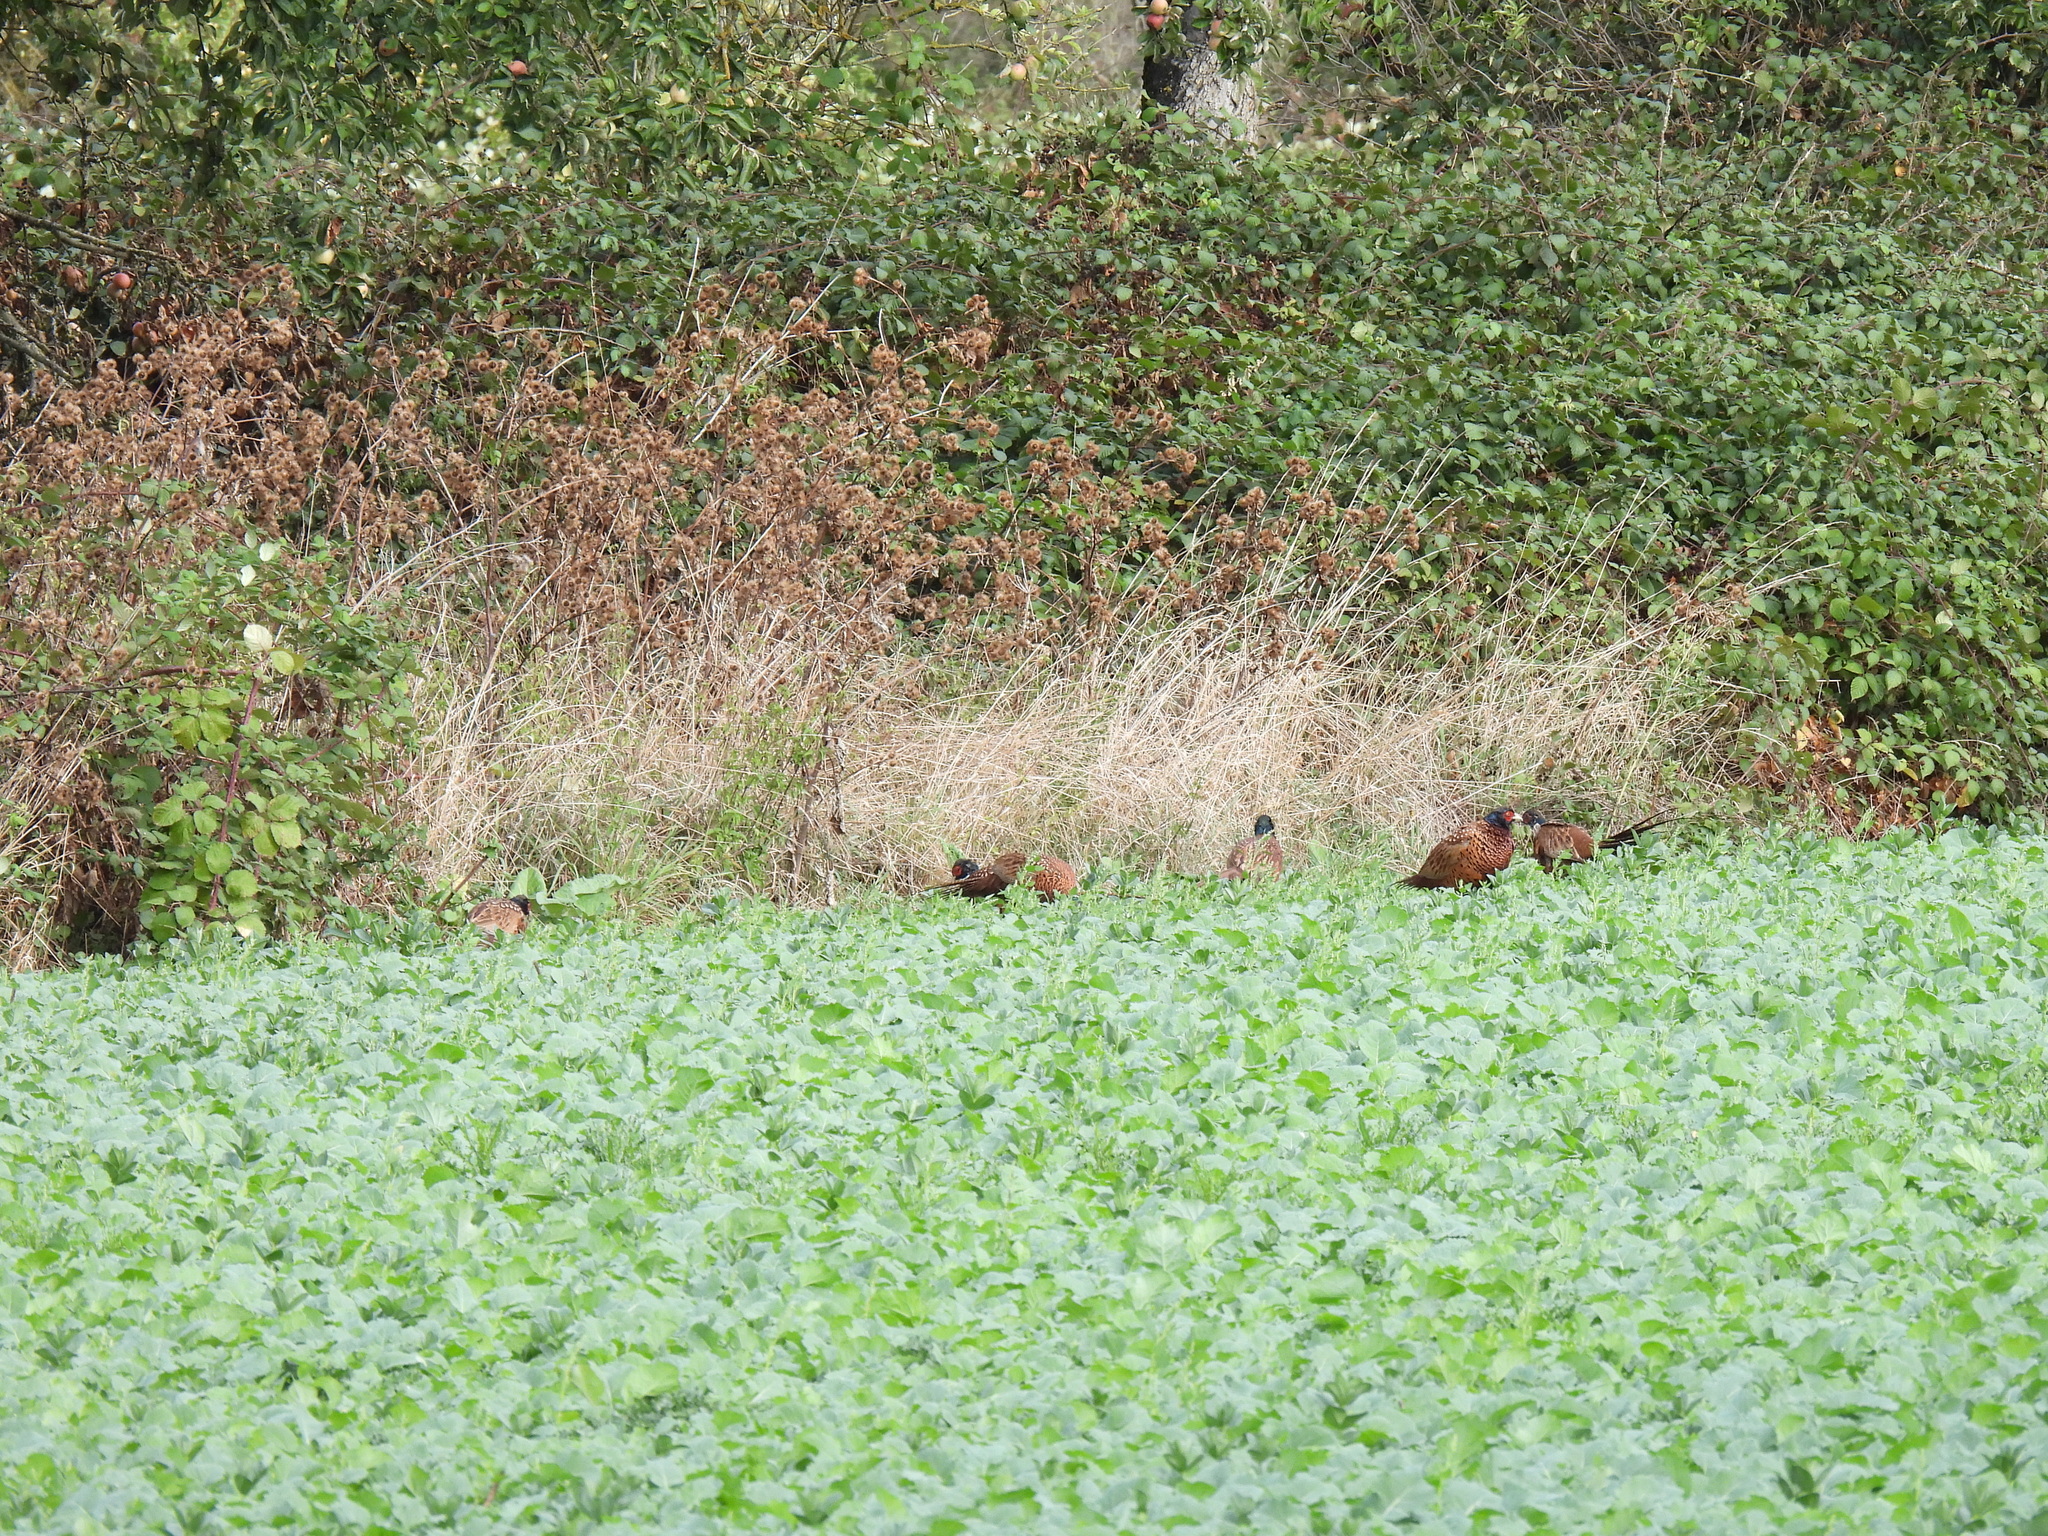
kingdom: Animalia
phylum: Chordata
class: Aves
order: Galliformes
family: Phasianidae
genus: Phasianus
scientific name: Phasianus colchicus
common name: Common pheasant
